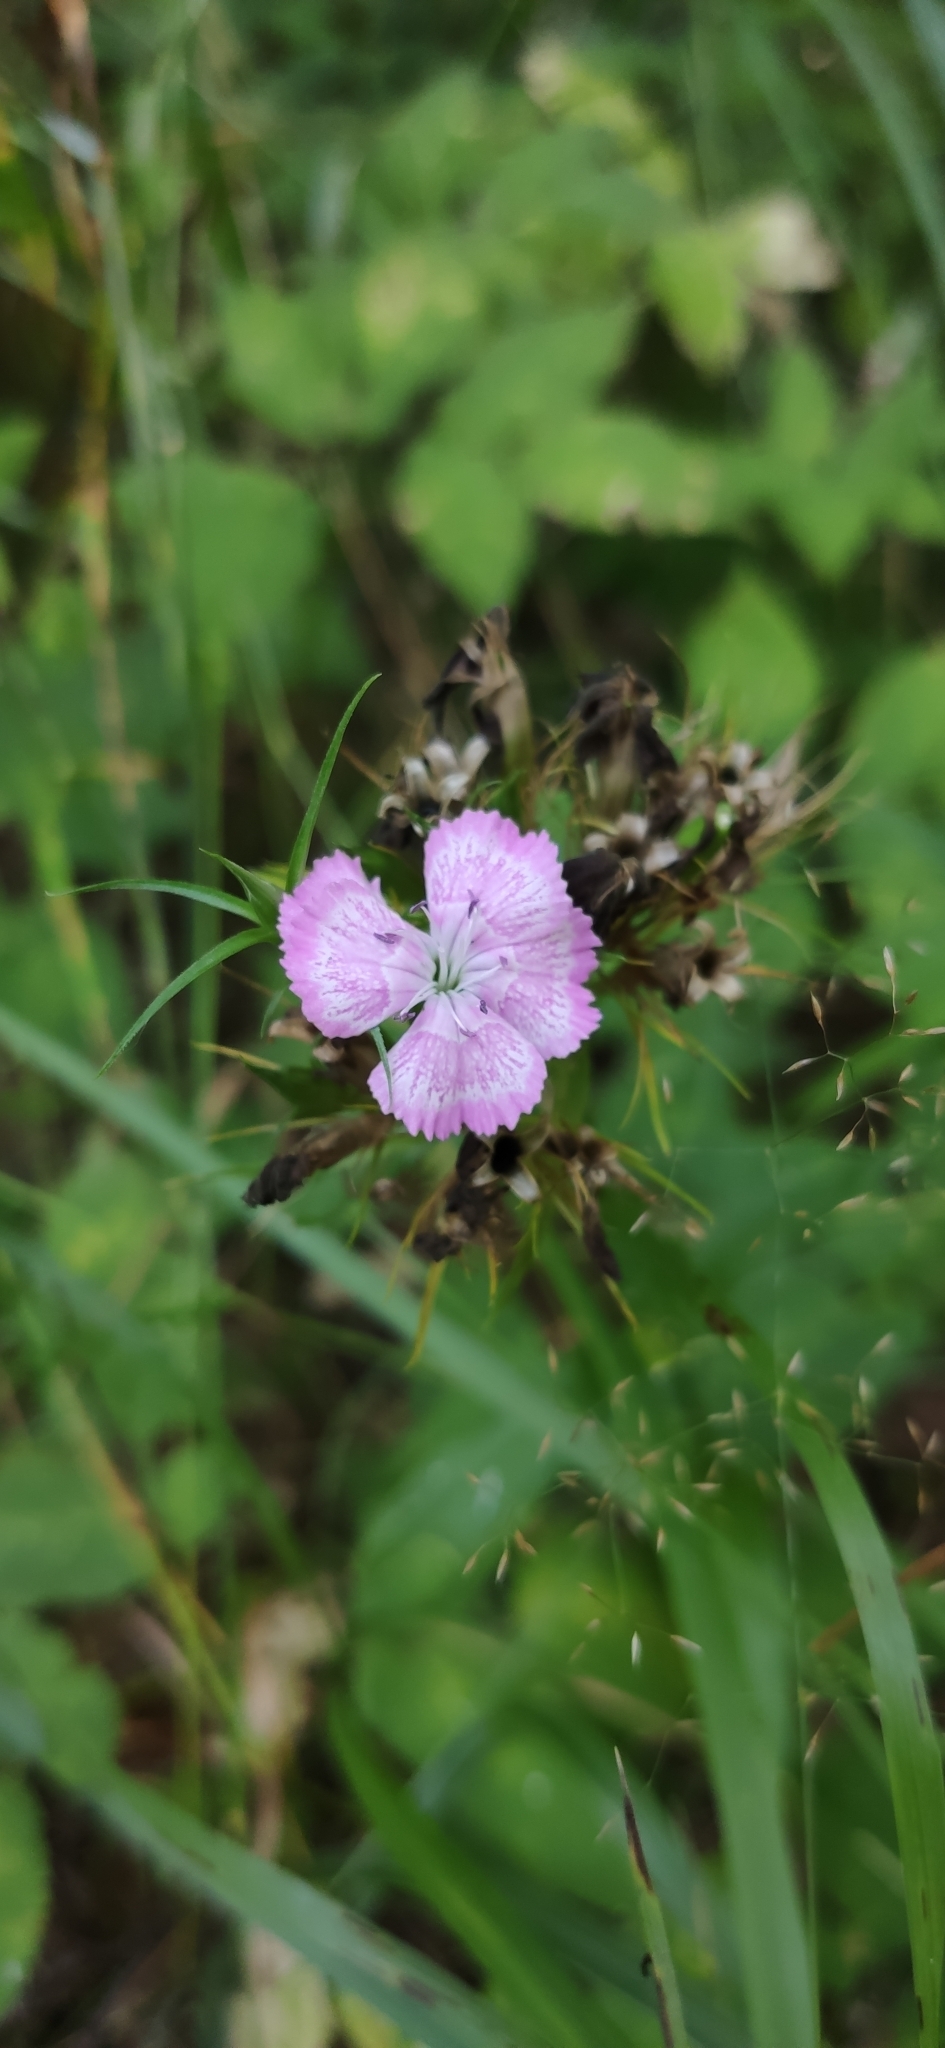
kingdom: Plantae
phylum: Tracheophyta
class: Magnoliopsida
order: Caryophyllales
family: Caryophyllaceae
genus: Dianthus
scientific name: Dianthus barbatus
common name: Sweet-william
